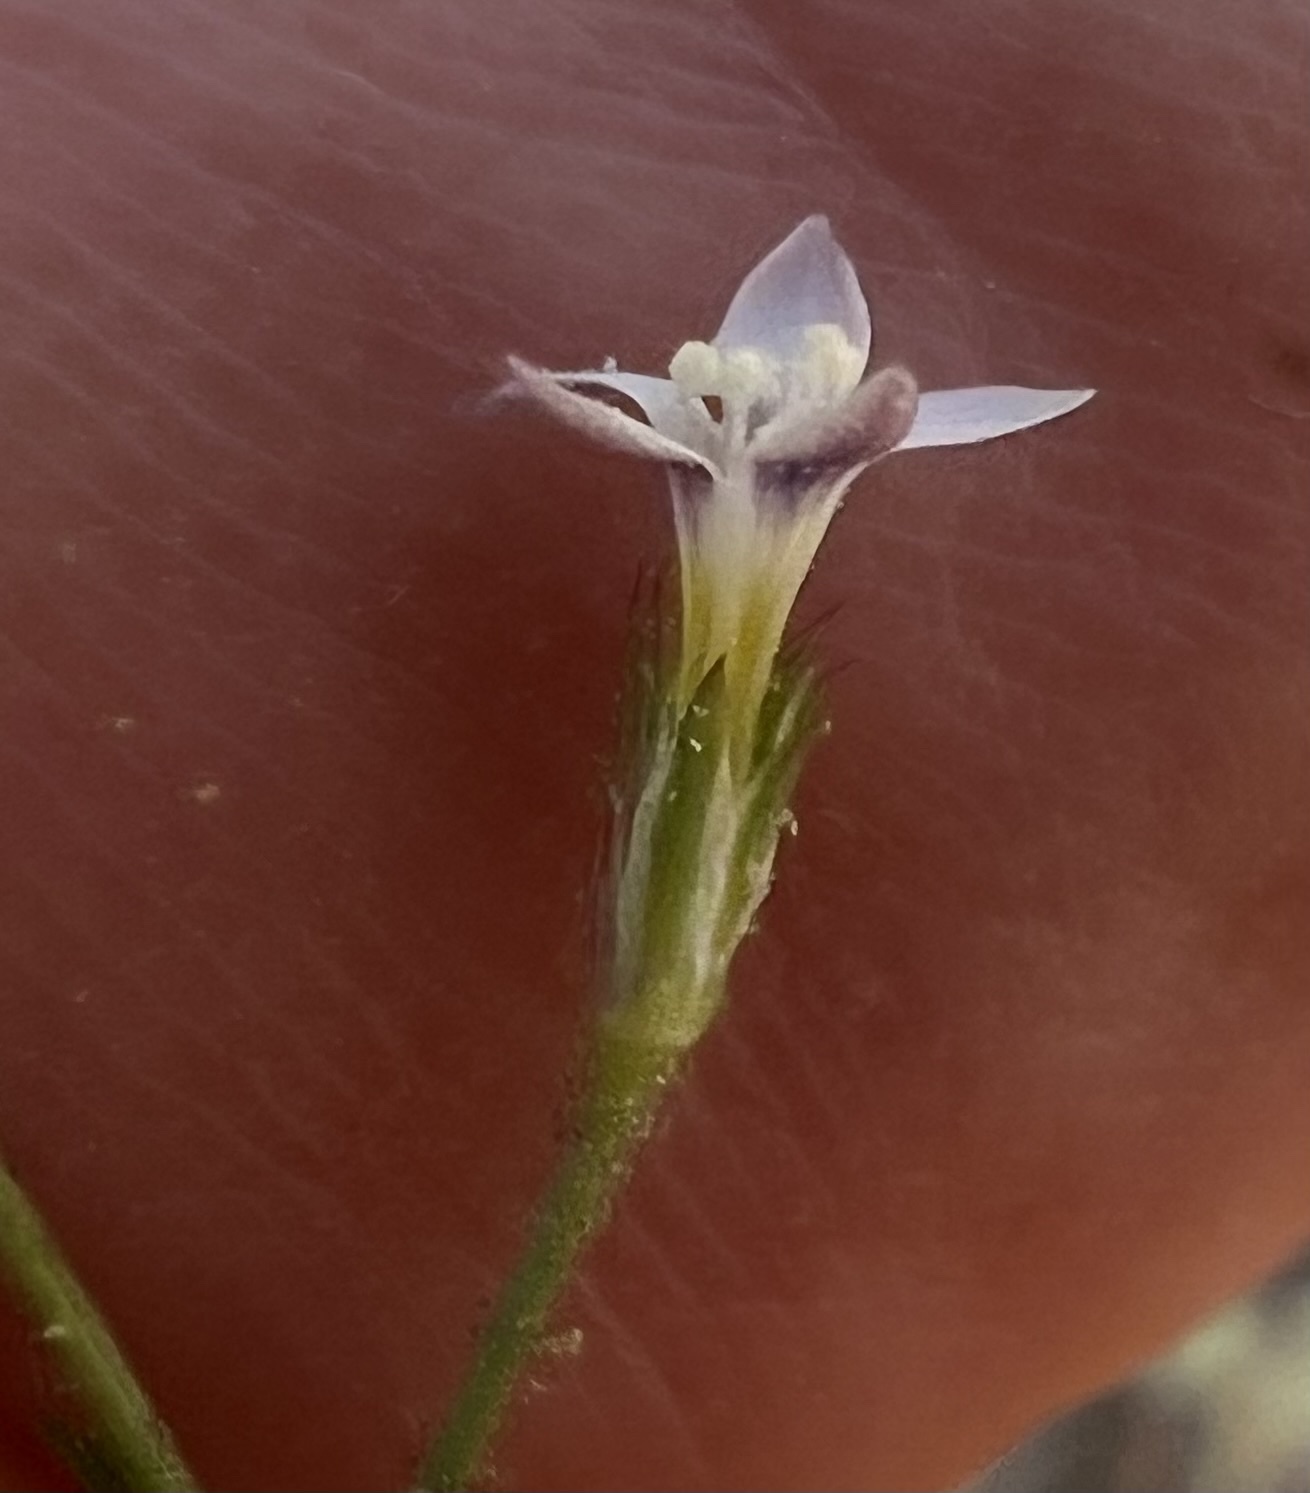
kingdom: Plantae
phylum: Tracheophyta
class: Magnoliopsida
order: Ericales
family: Polemoniaceae
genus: Gilia
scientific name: Gilia clokeyi
